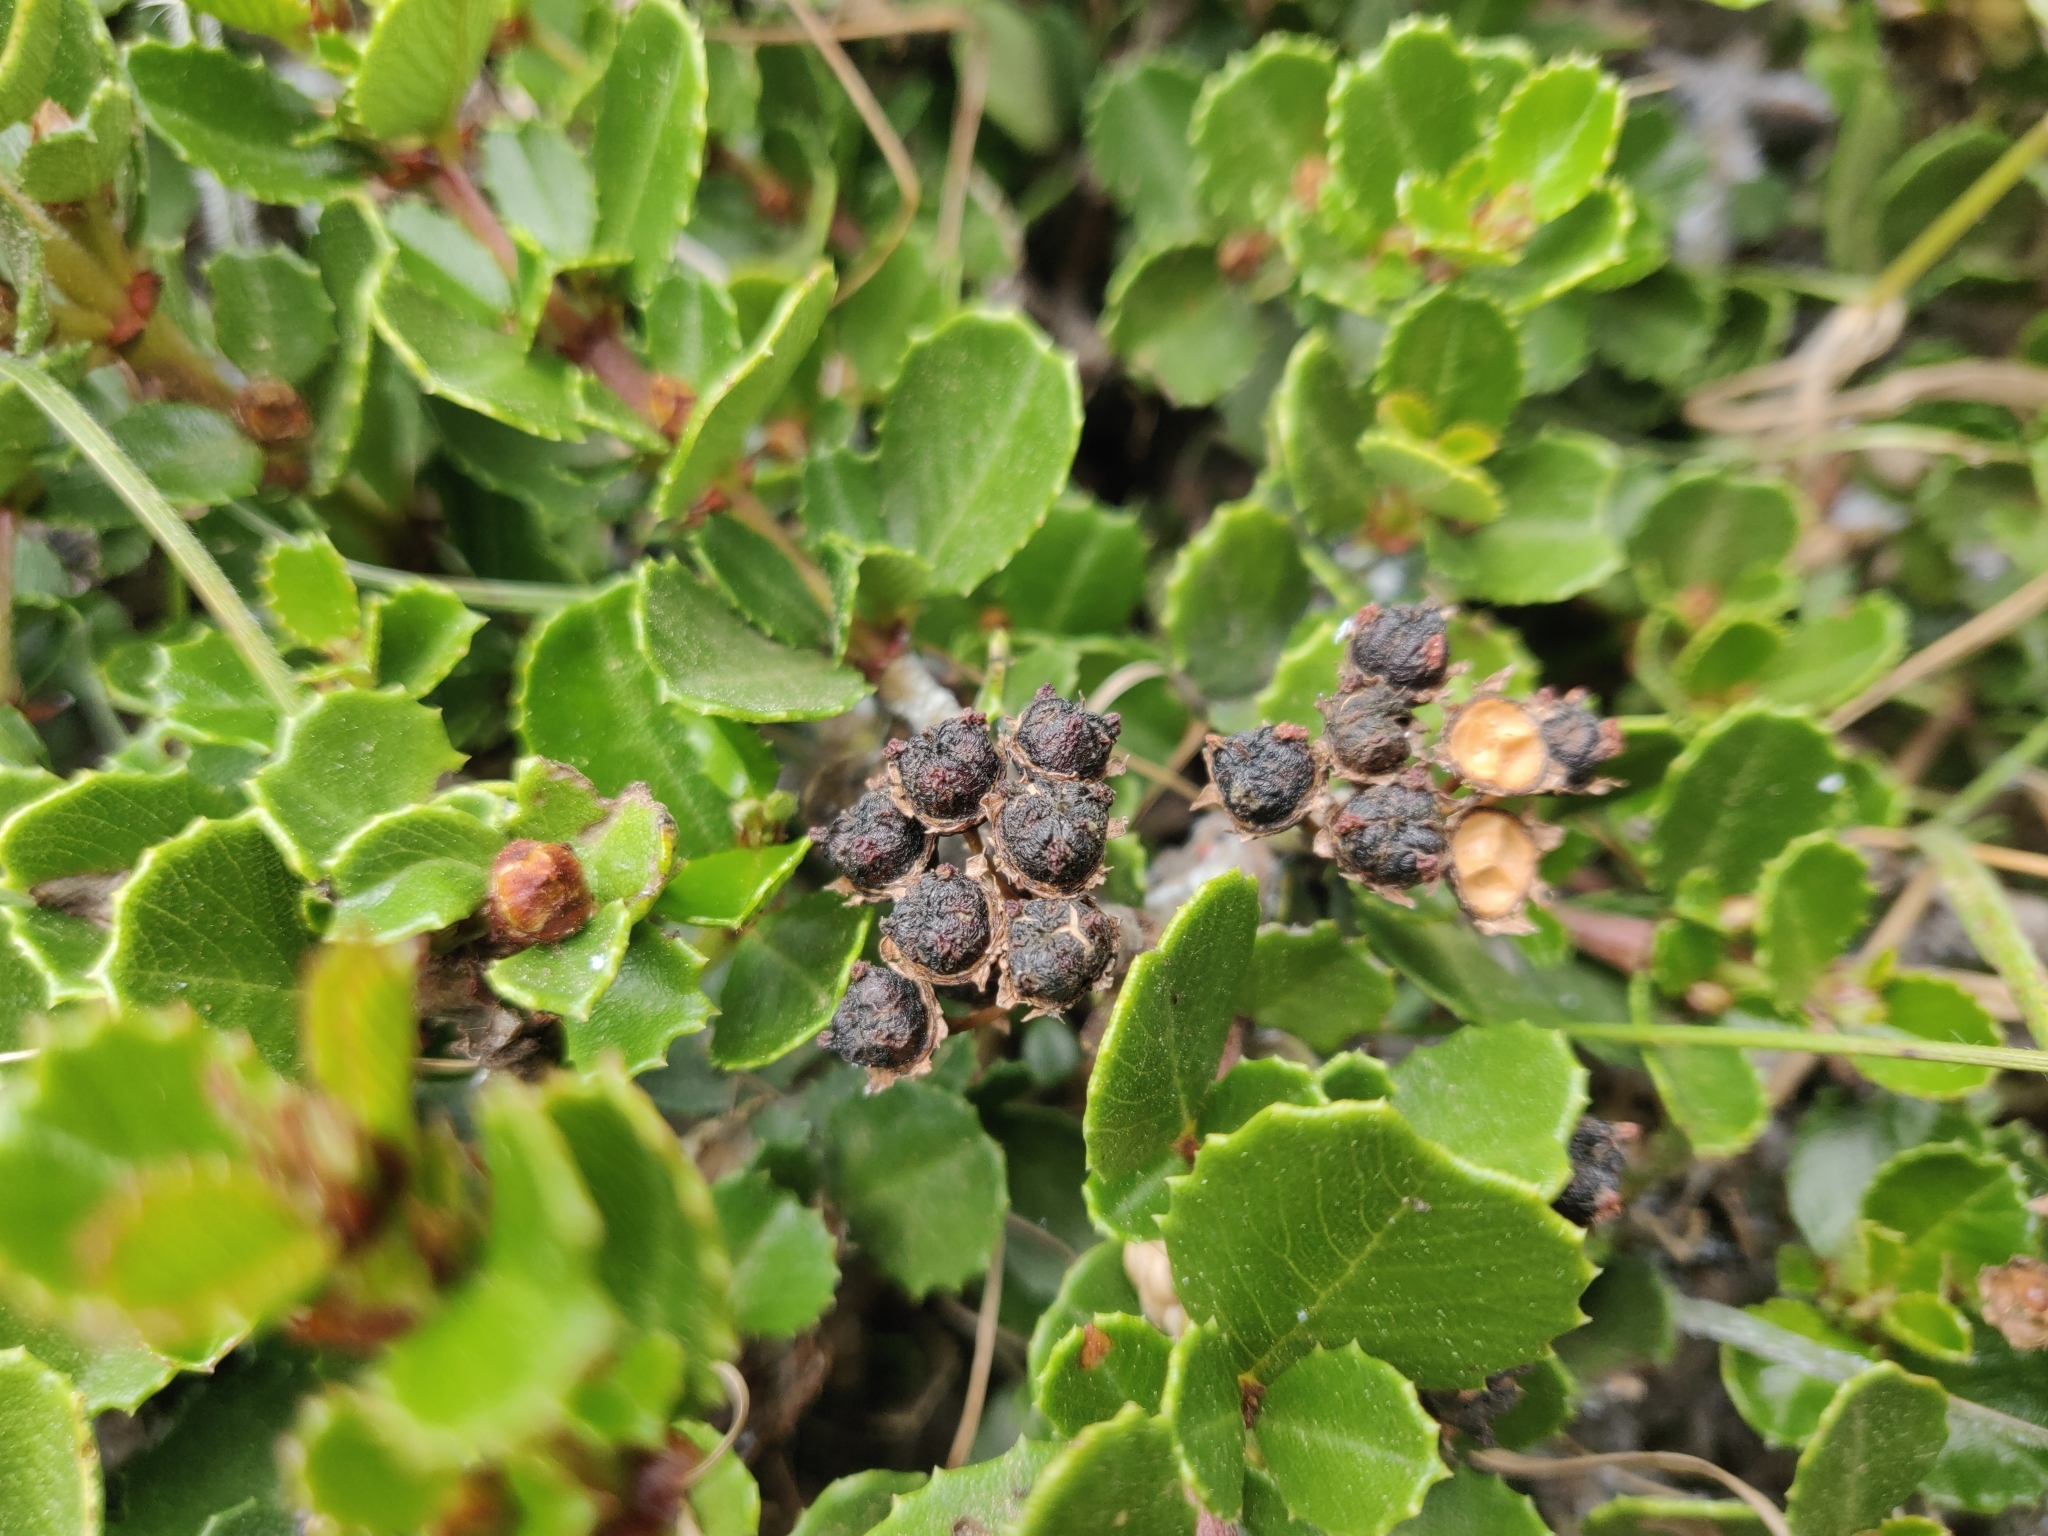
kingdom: Plantae
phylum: Tracheophyta
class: Magnoliopsida
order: Rosales
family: Rhamnaceae
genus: Ceanothus
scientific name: Ceanothus gloriosus
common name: Point reyes ceanothus
